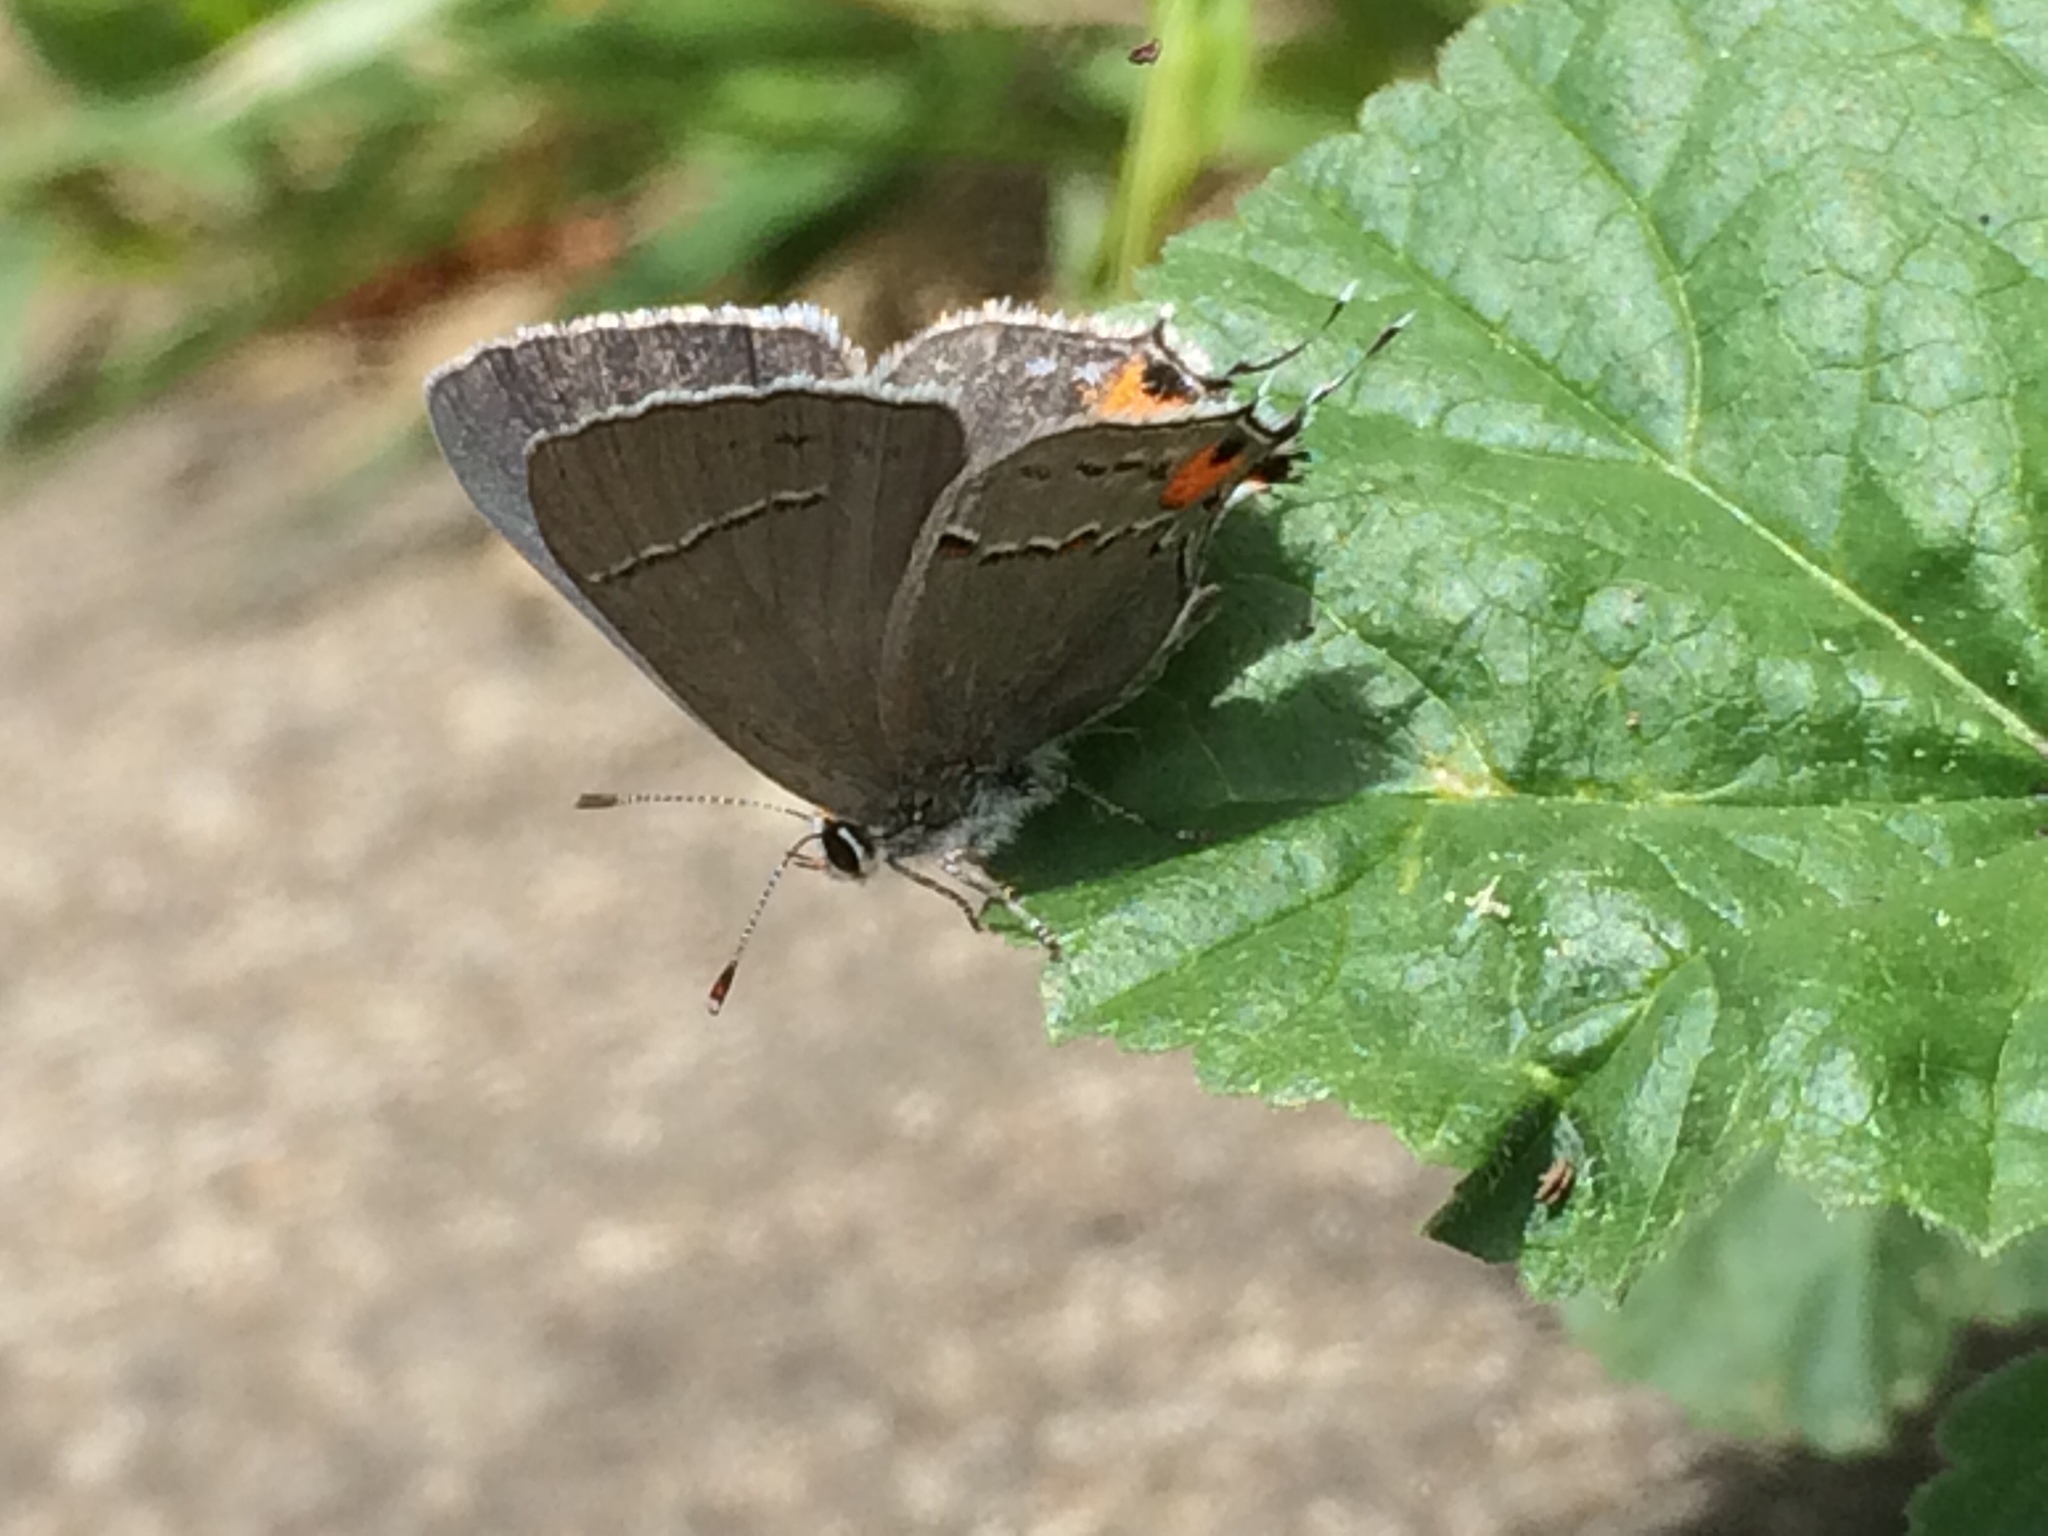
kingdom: Animalia
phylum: Arthropoda
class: Insecta
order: Lepidoptera
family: Lycaenidae
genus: Strymon
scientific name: Strymon melinus
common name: Gray hairstreak
